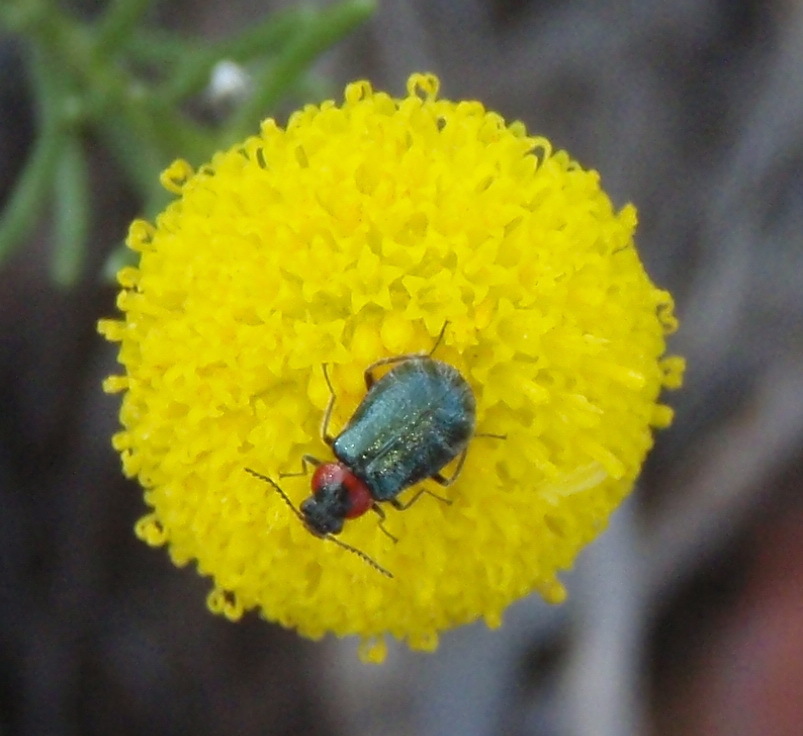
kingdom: Plantae
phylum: Tracheophyta
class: Magnoliopsida
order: Asterales
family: Asteraceae
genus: Chrysocoma
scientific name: Chrysocoma ciliata
